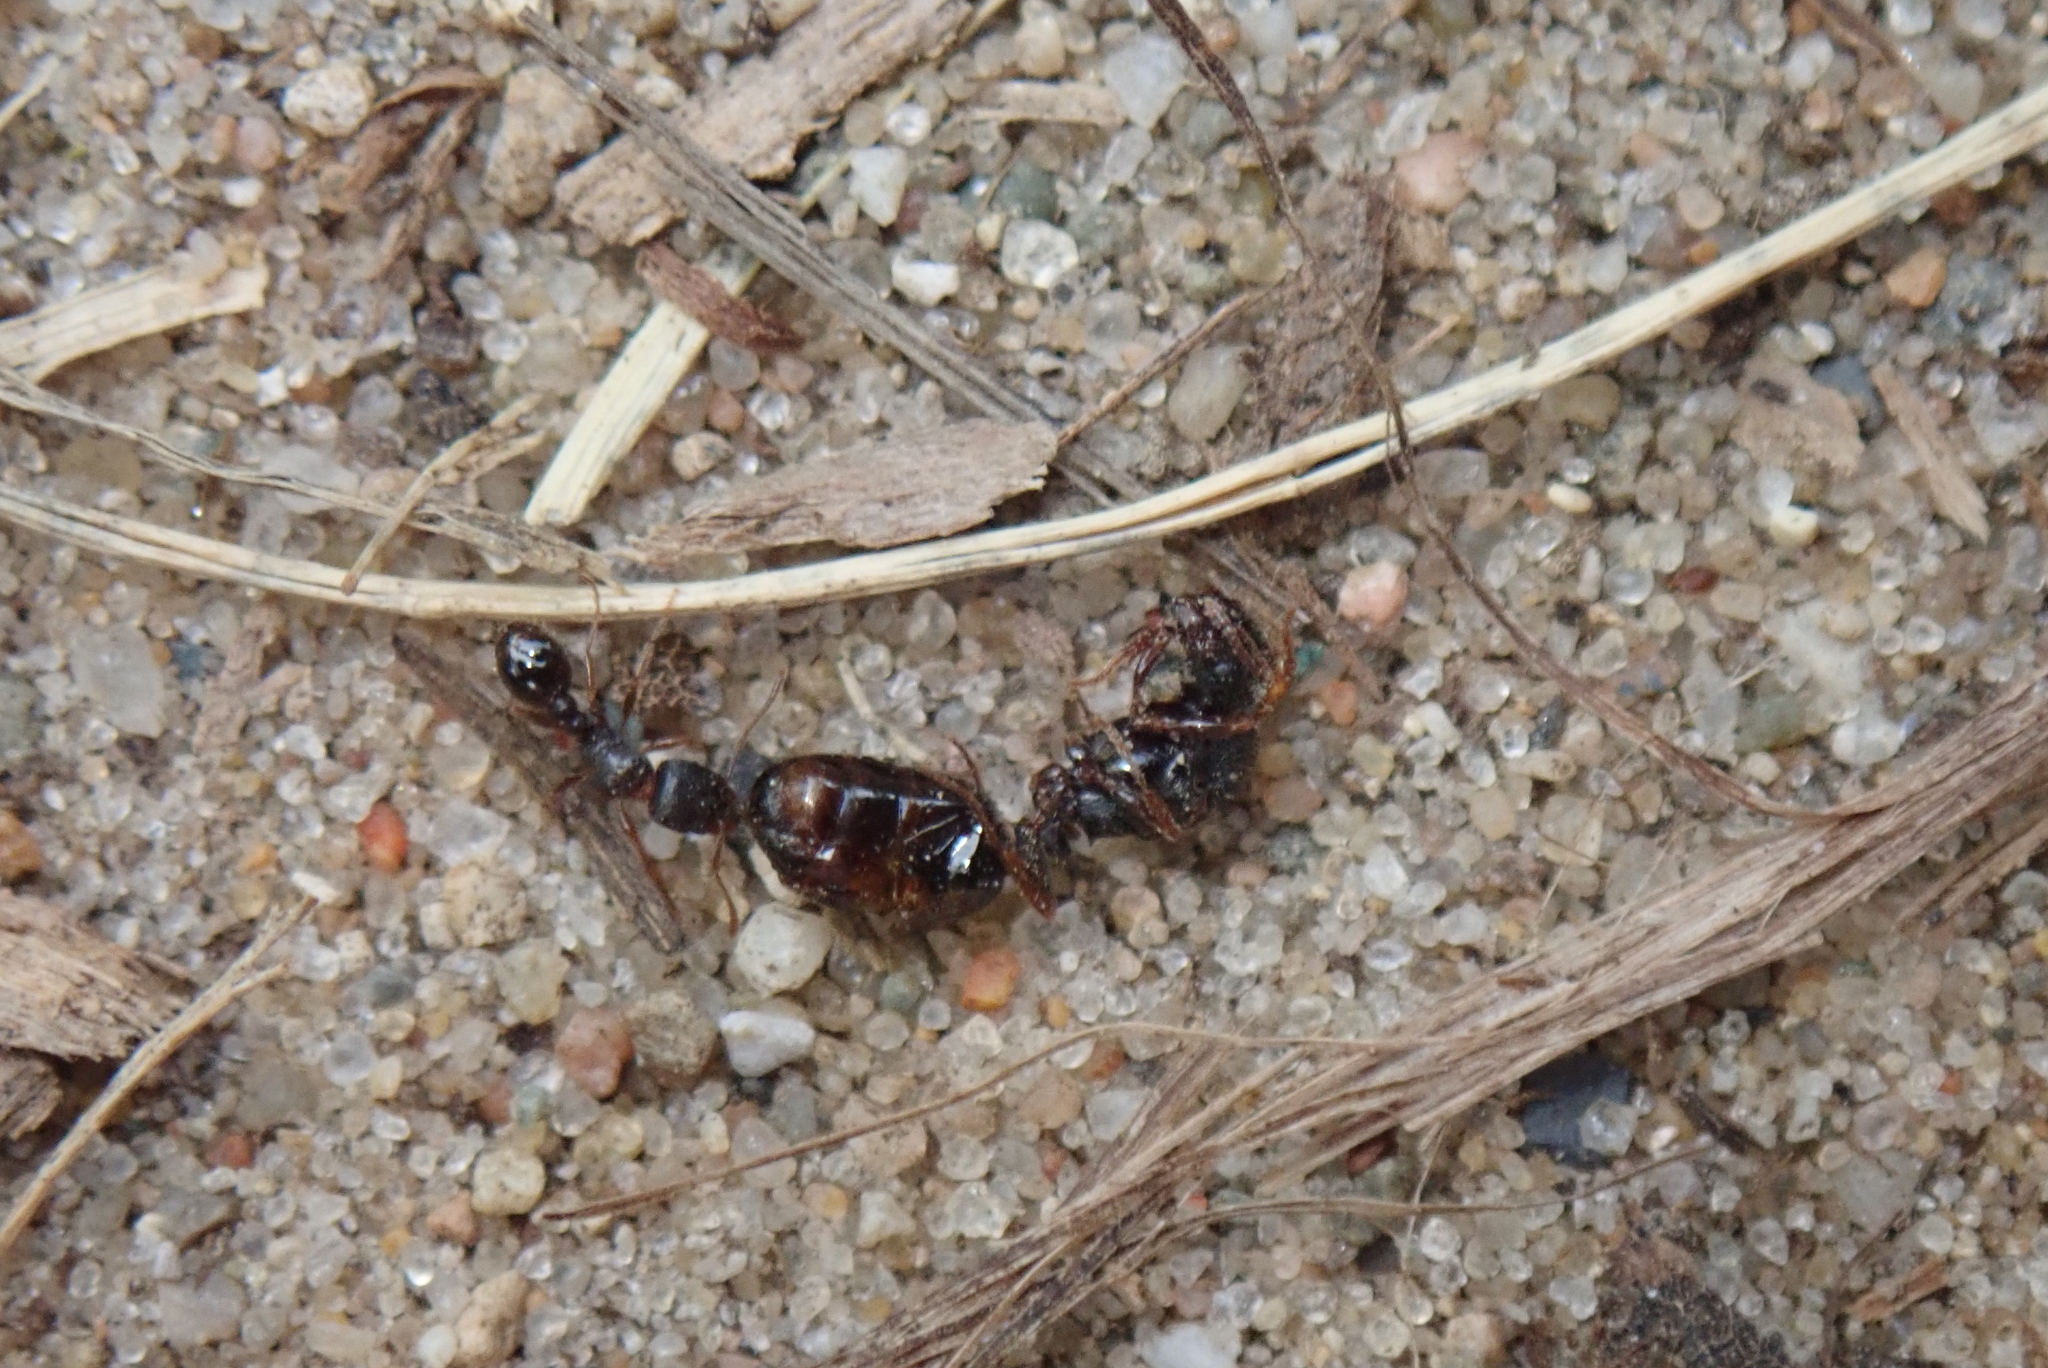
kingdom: Animalia
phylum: Arthropoda
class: Insecta
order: Hymenoptera
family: Formicidae
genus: Tetramorium
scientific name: Tetramorium immigrans
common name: Pavement ant
